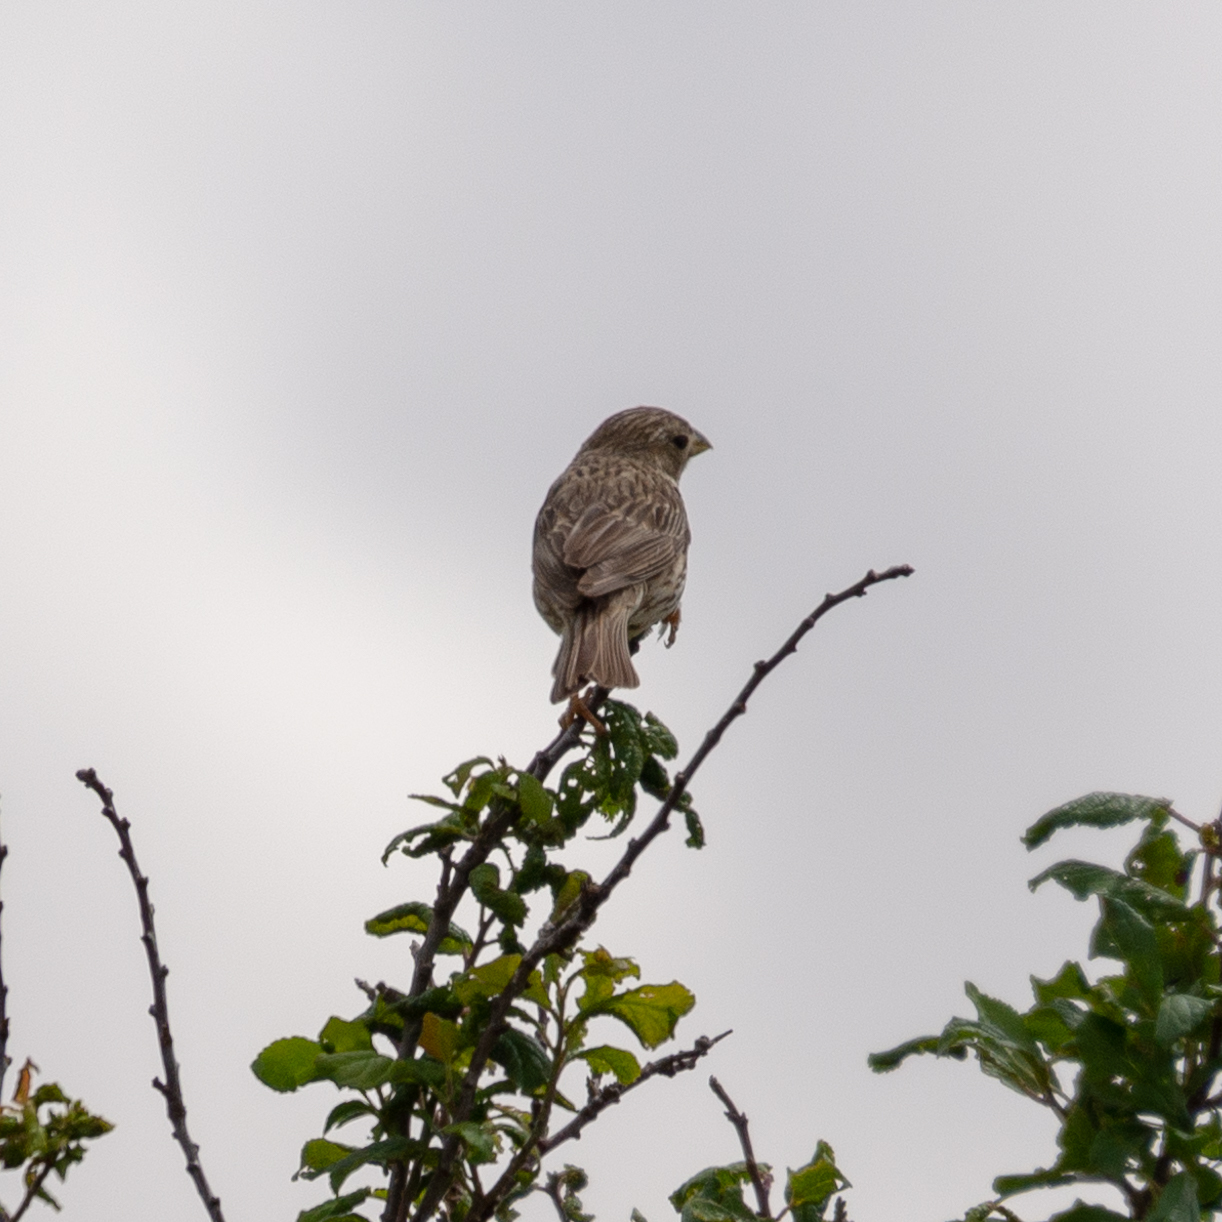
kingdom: Animalia
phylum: Chordata
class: Aves
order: Passeriformes
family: Emberizidae
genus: Emberiza
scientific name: Emberiza calandra
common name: Corn bunting
